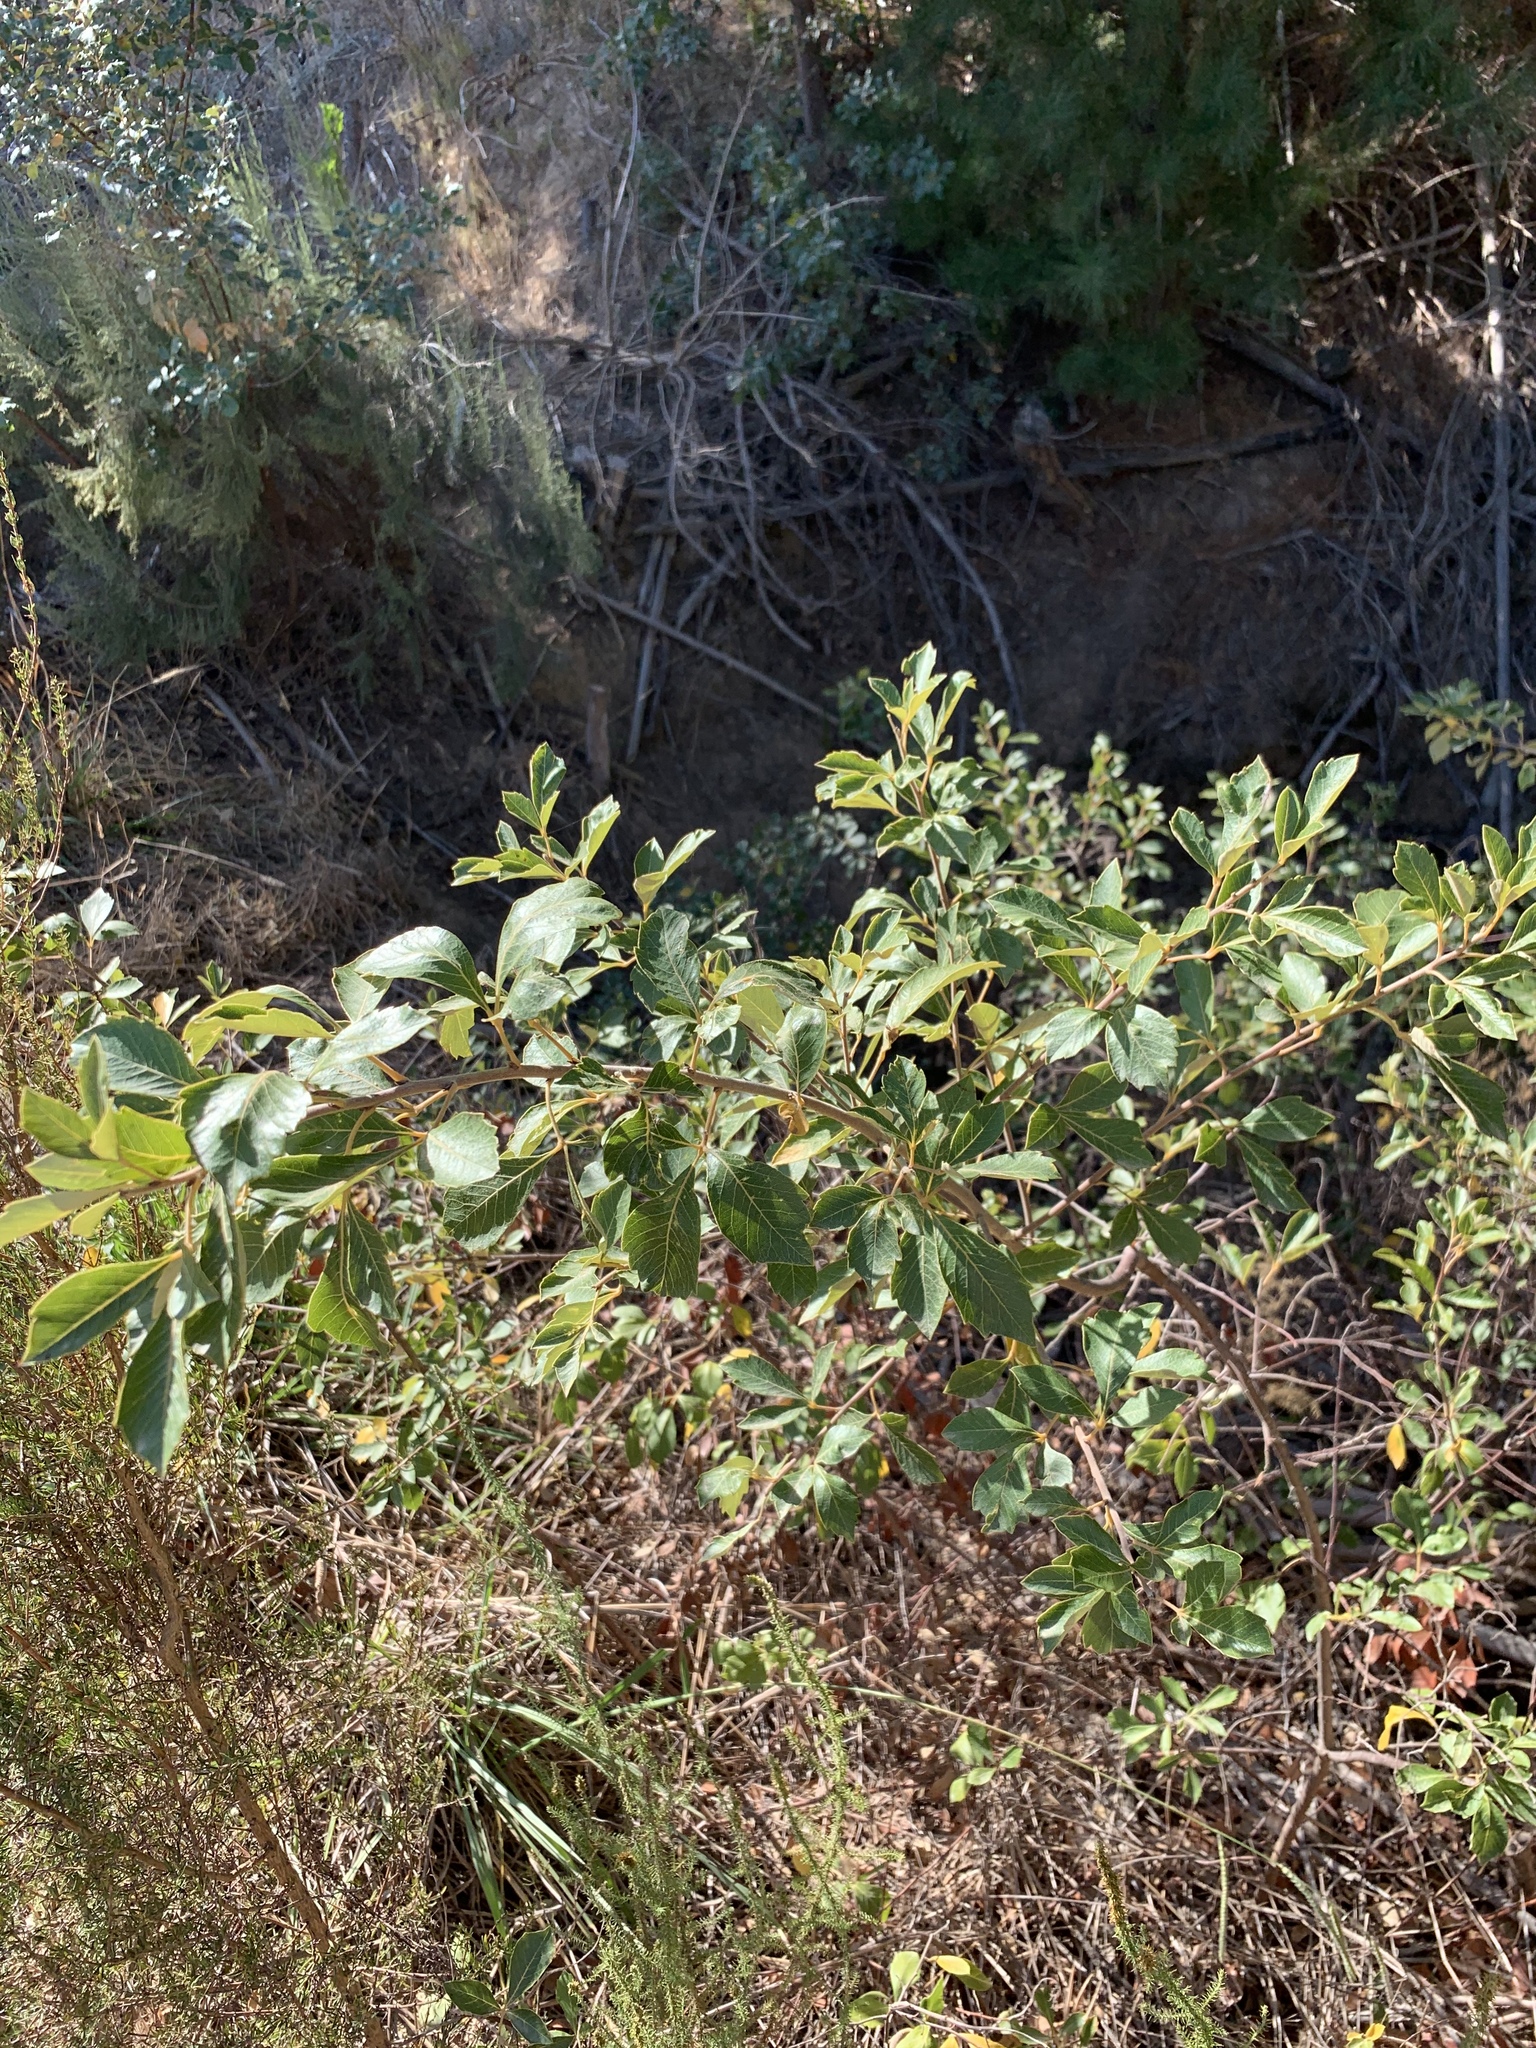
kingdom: Plantae
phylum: Tracheophyta
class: Magnoliopsida
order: Sapindales
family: Anacardiaceae
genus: Searsia
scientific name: Searsia tomentosa
